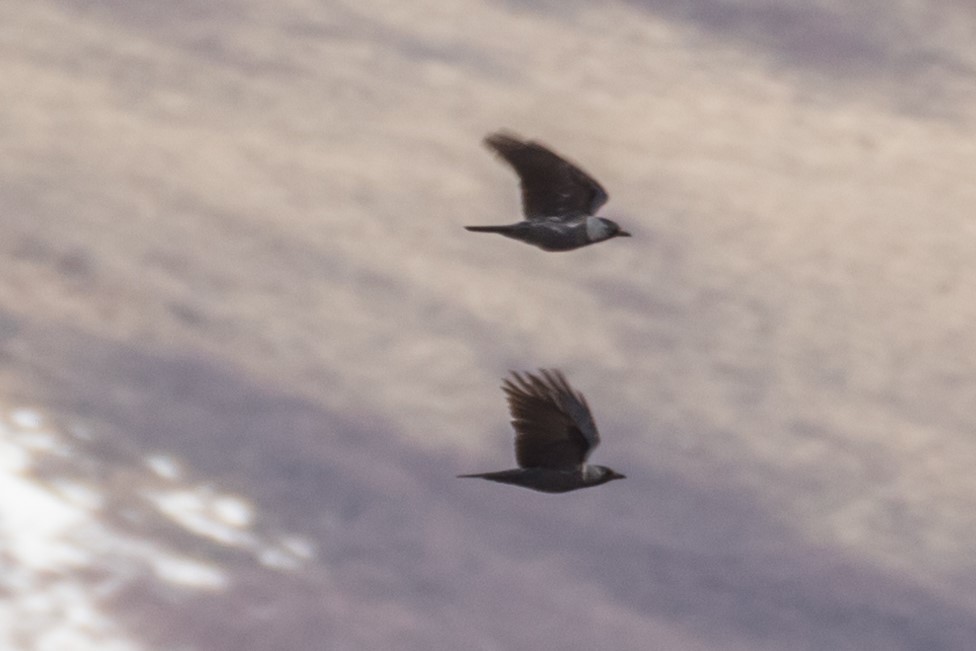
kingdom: Animalia
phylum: Chordata
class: Aves
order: Passeriformes
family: Corvidae
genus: Coloeus
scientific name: Coloeus monedula
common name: Western jackdaw
